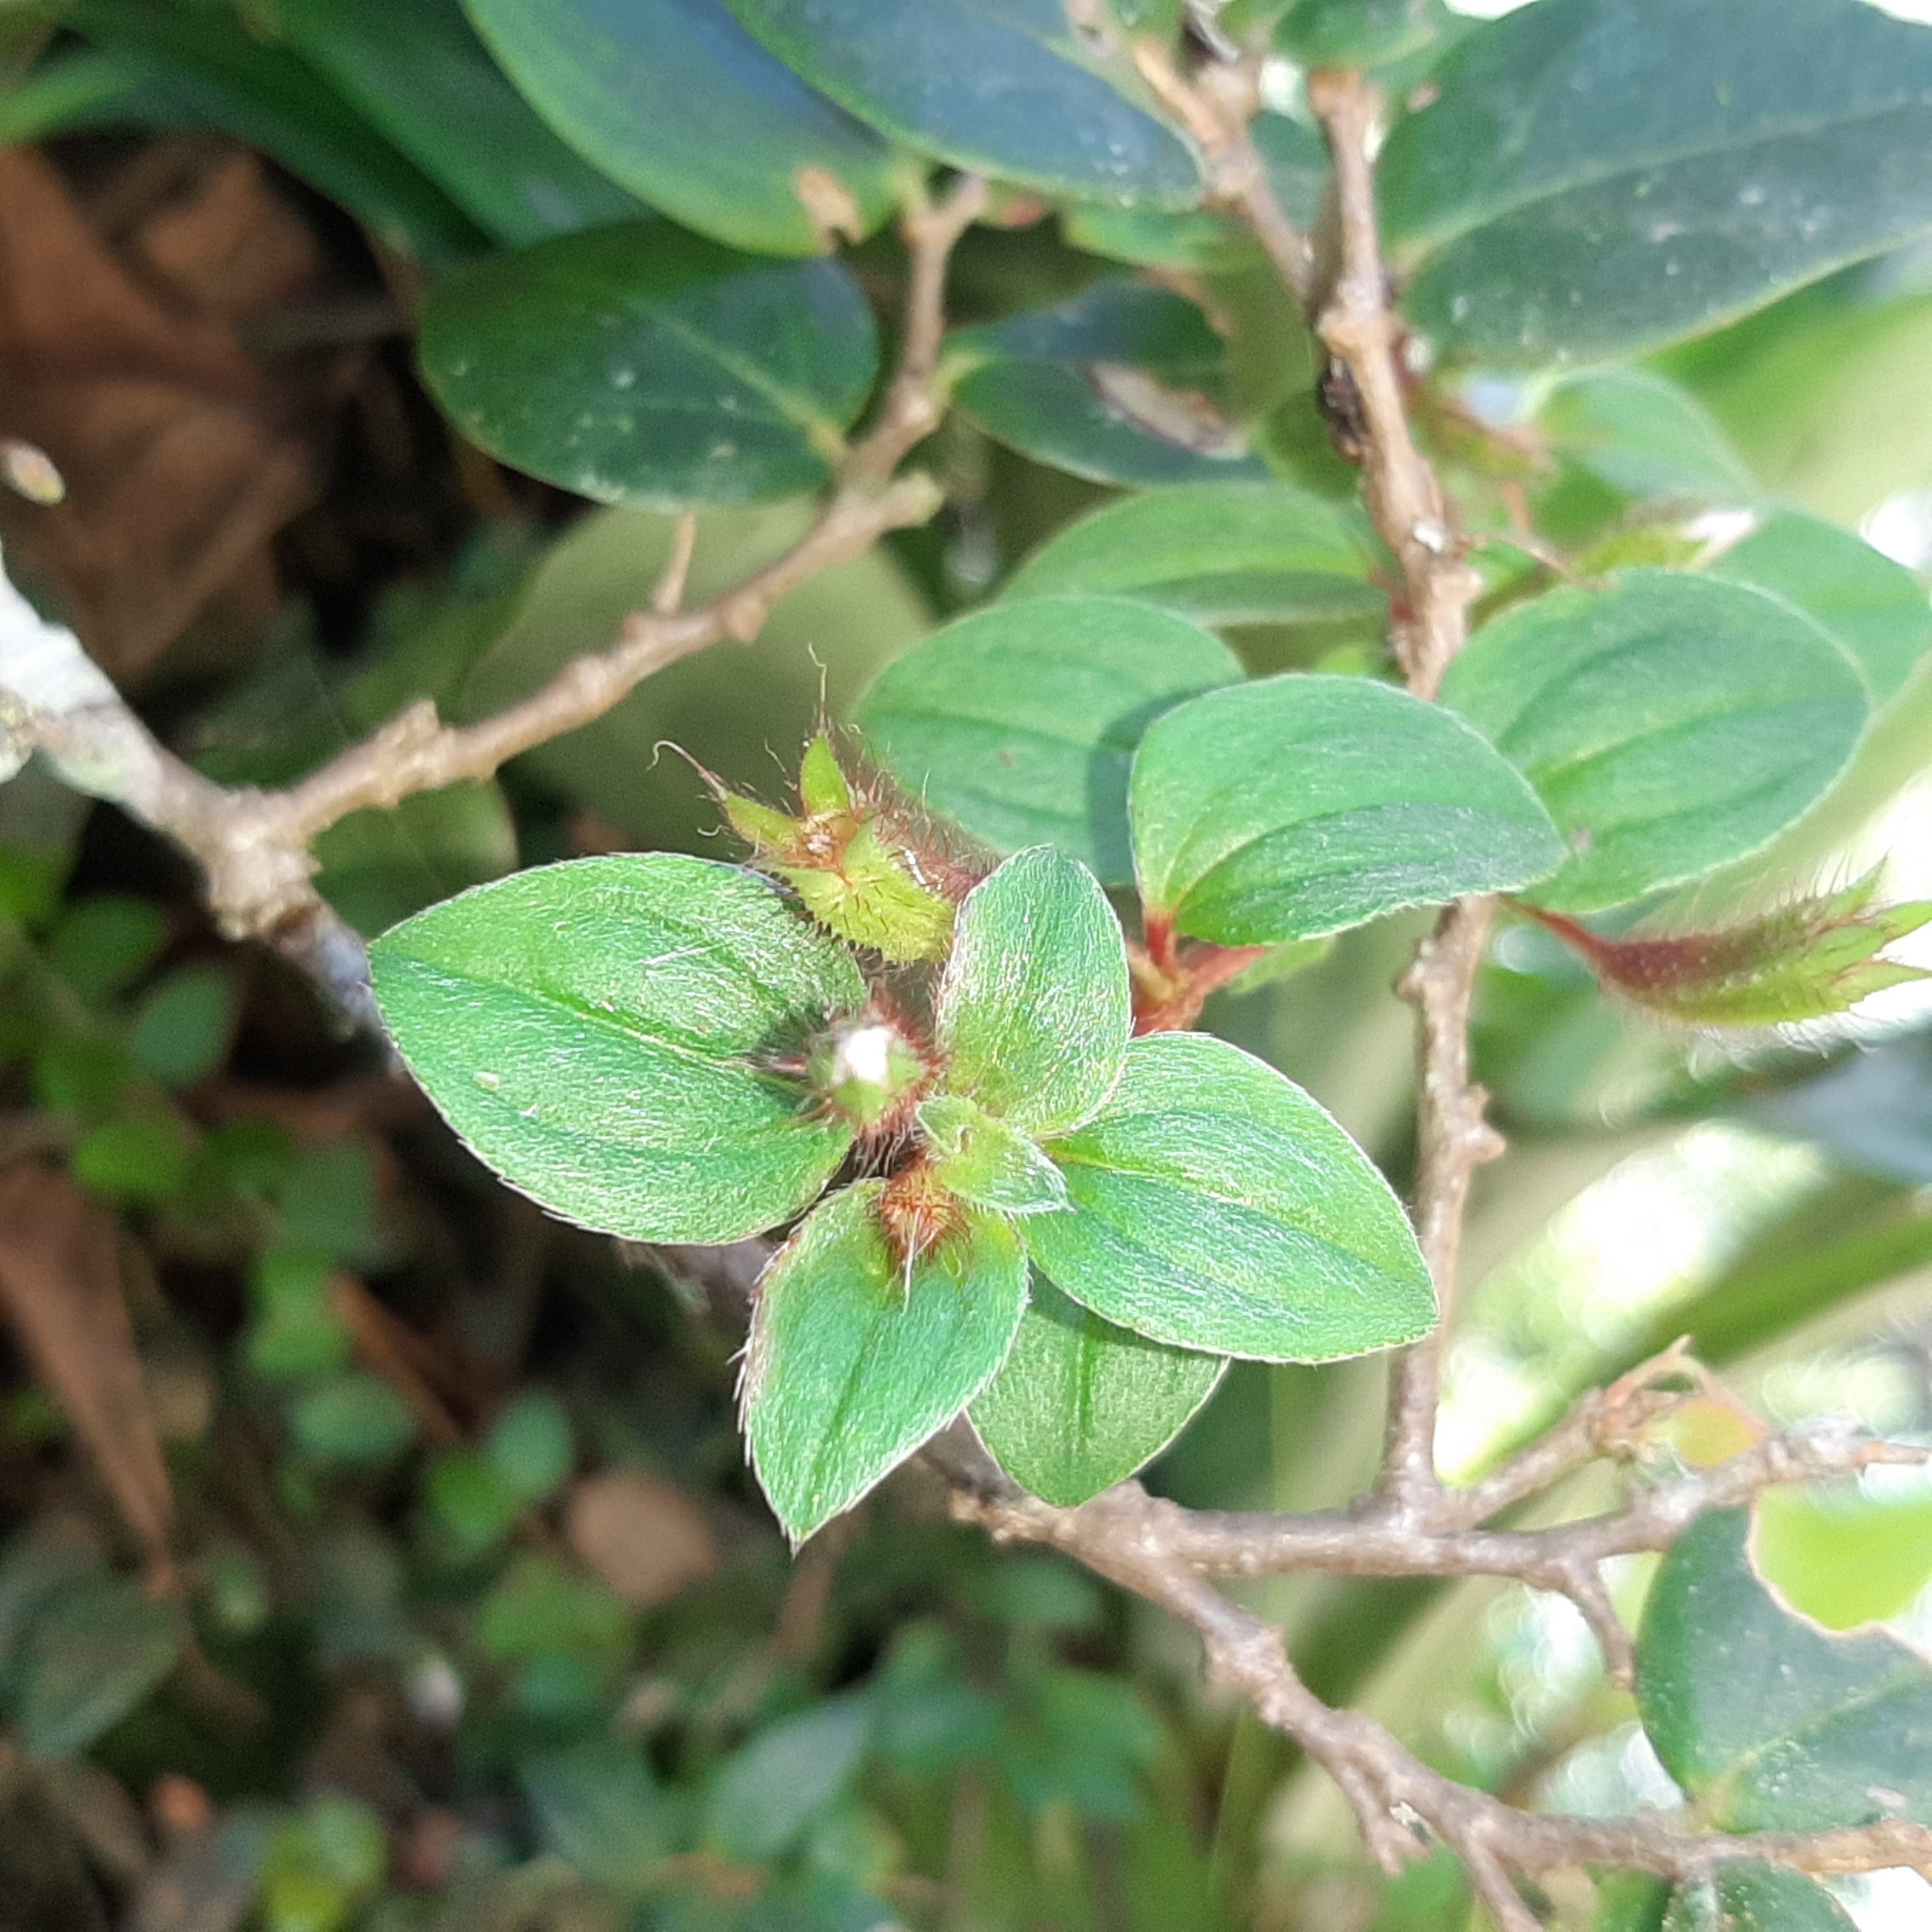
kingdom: Plantae
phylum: Tracheophyta
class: Magnoliopsida
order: Myrtales
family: Melastomataceae
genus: Pilocosta
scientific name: Pilocosta nana
